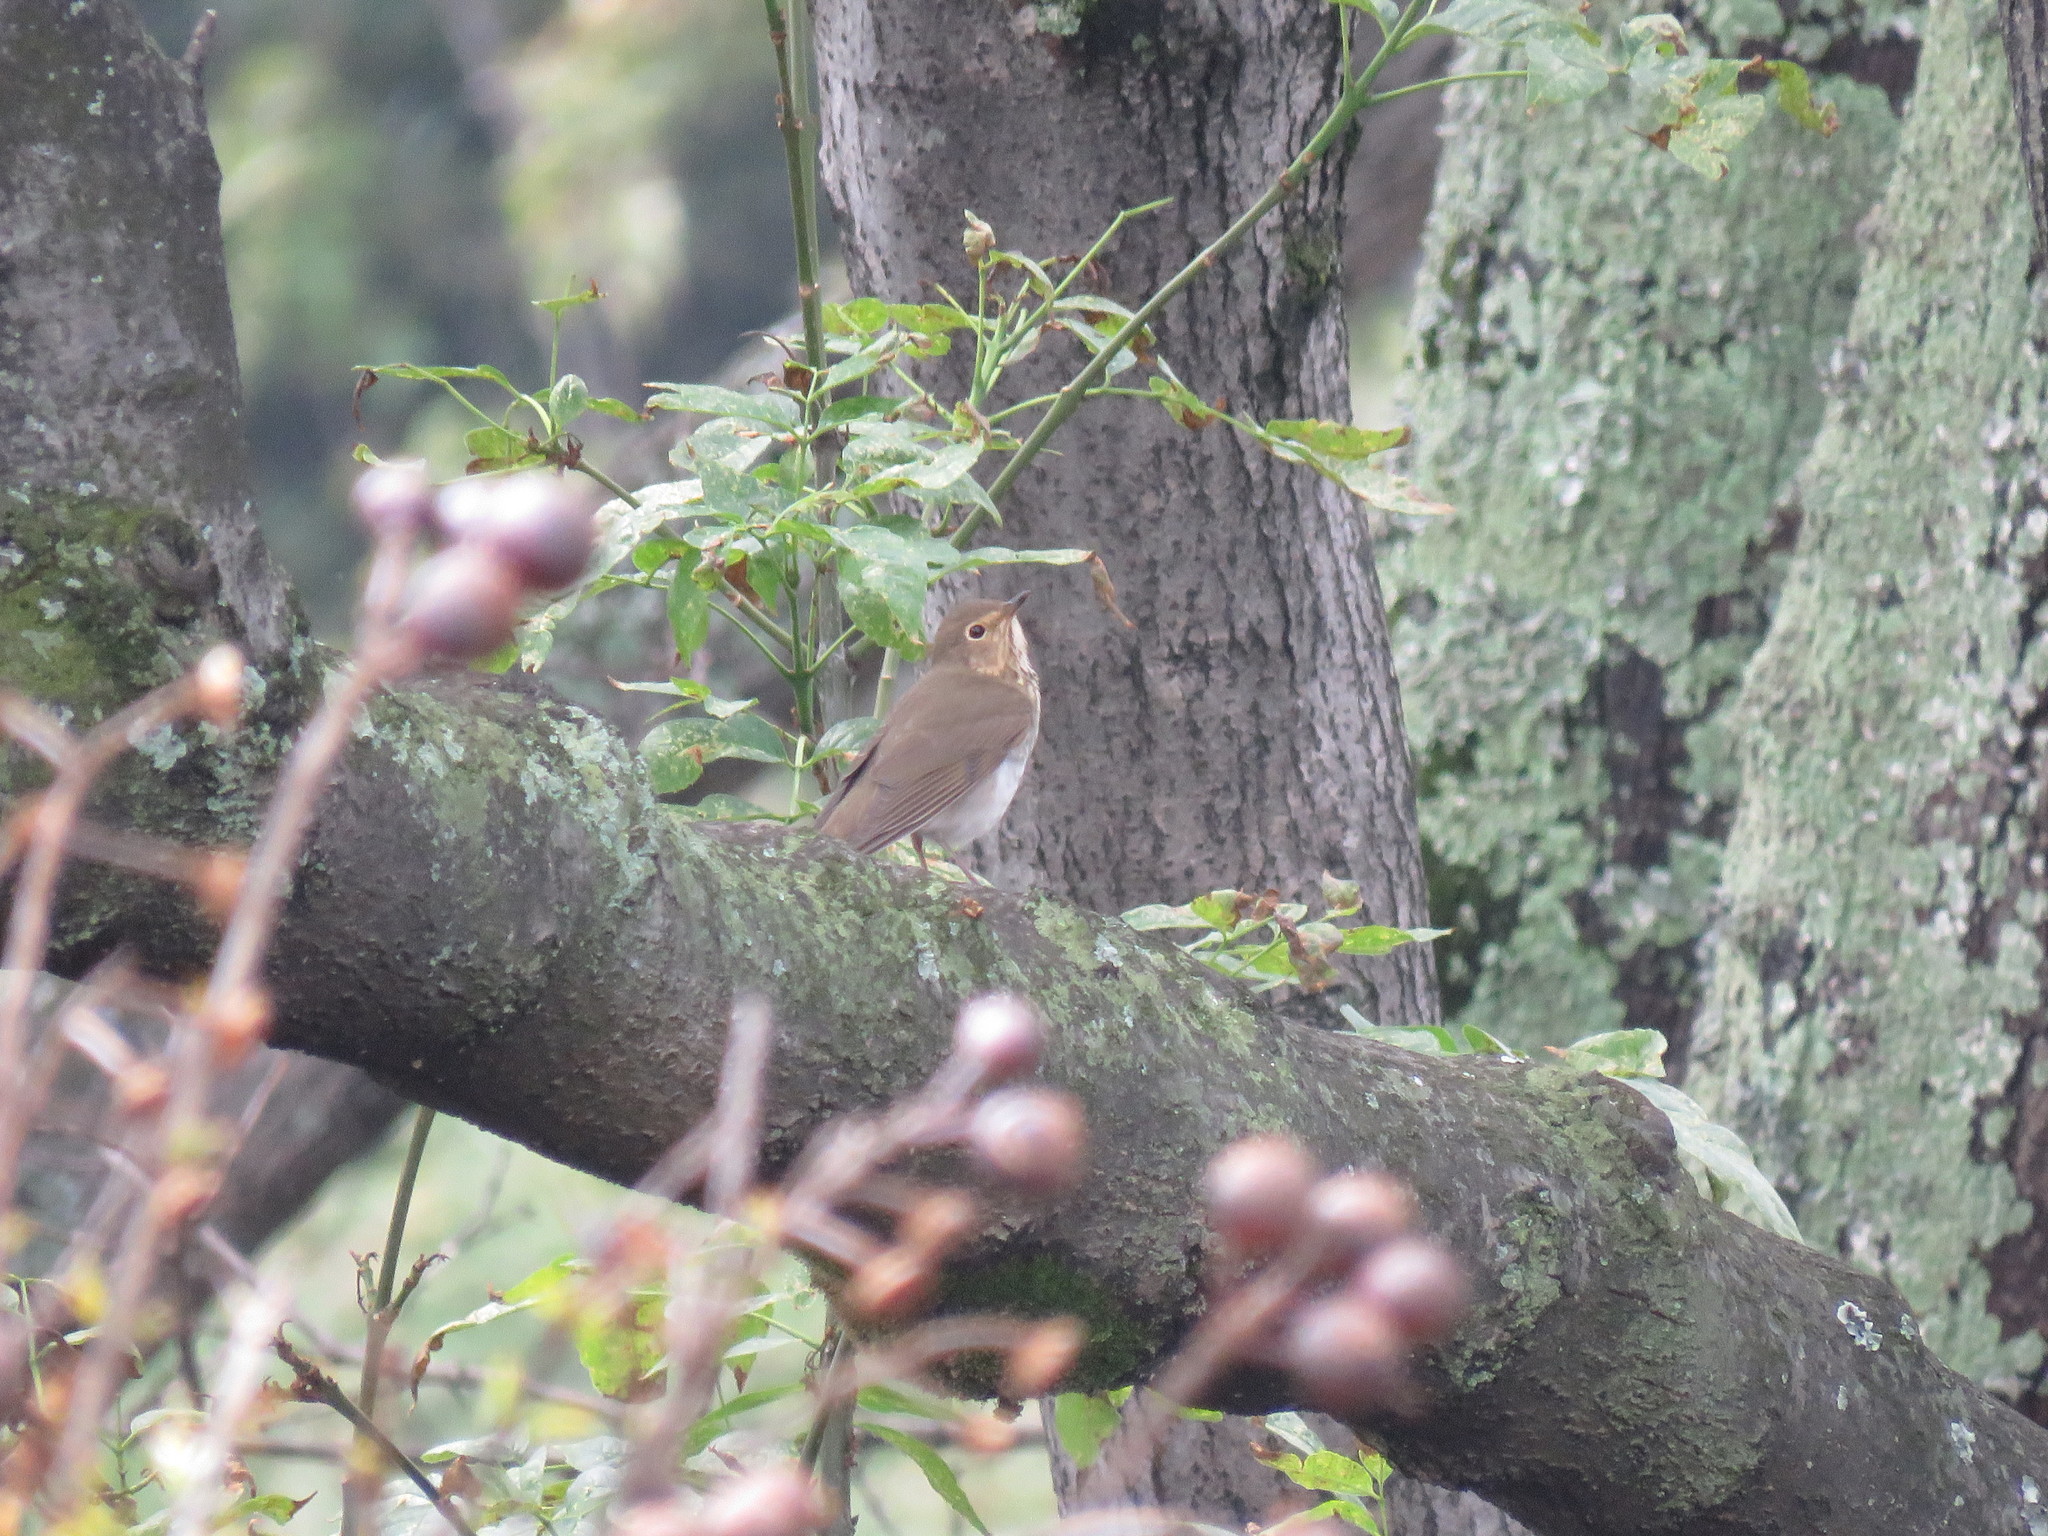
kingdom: Animalia
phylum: Chordata
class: Aves
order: Passeriformes
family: Turdidae
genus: Catharus
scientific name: Catharus ustulatus
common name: Swainson's thrush
